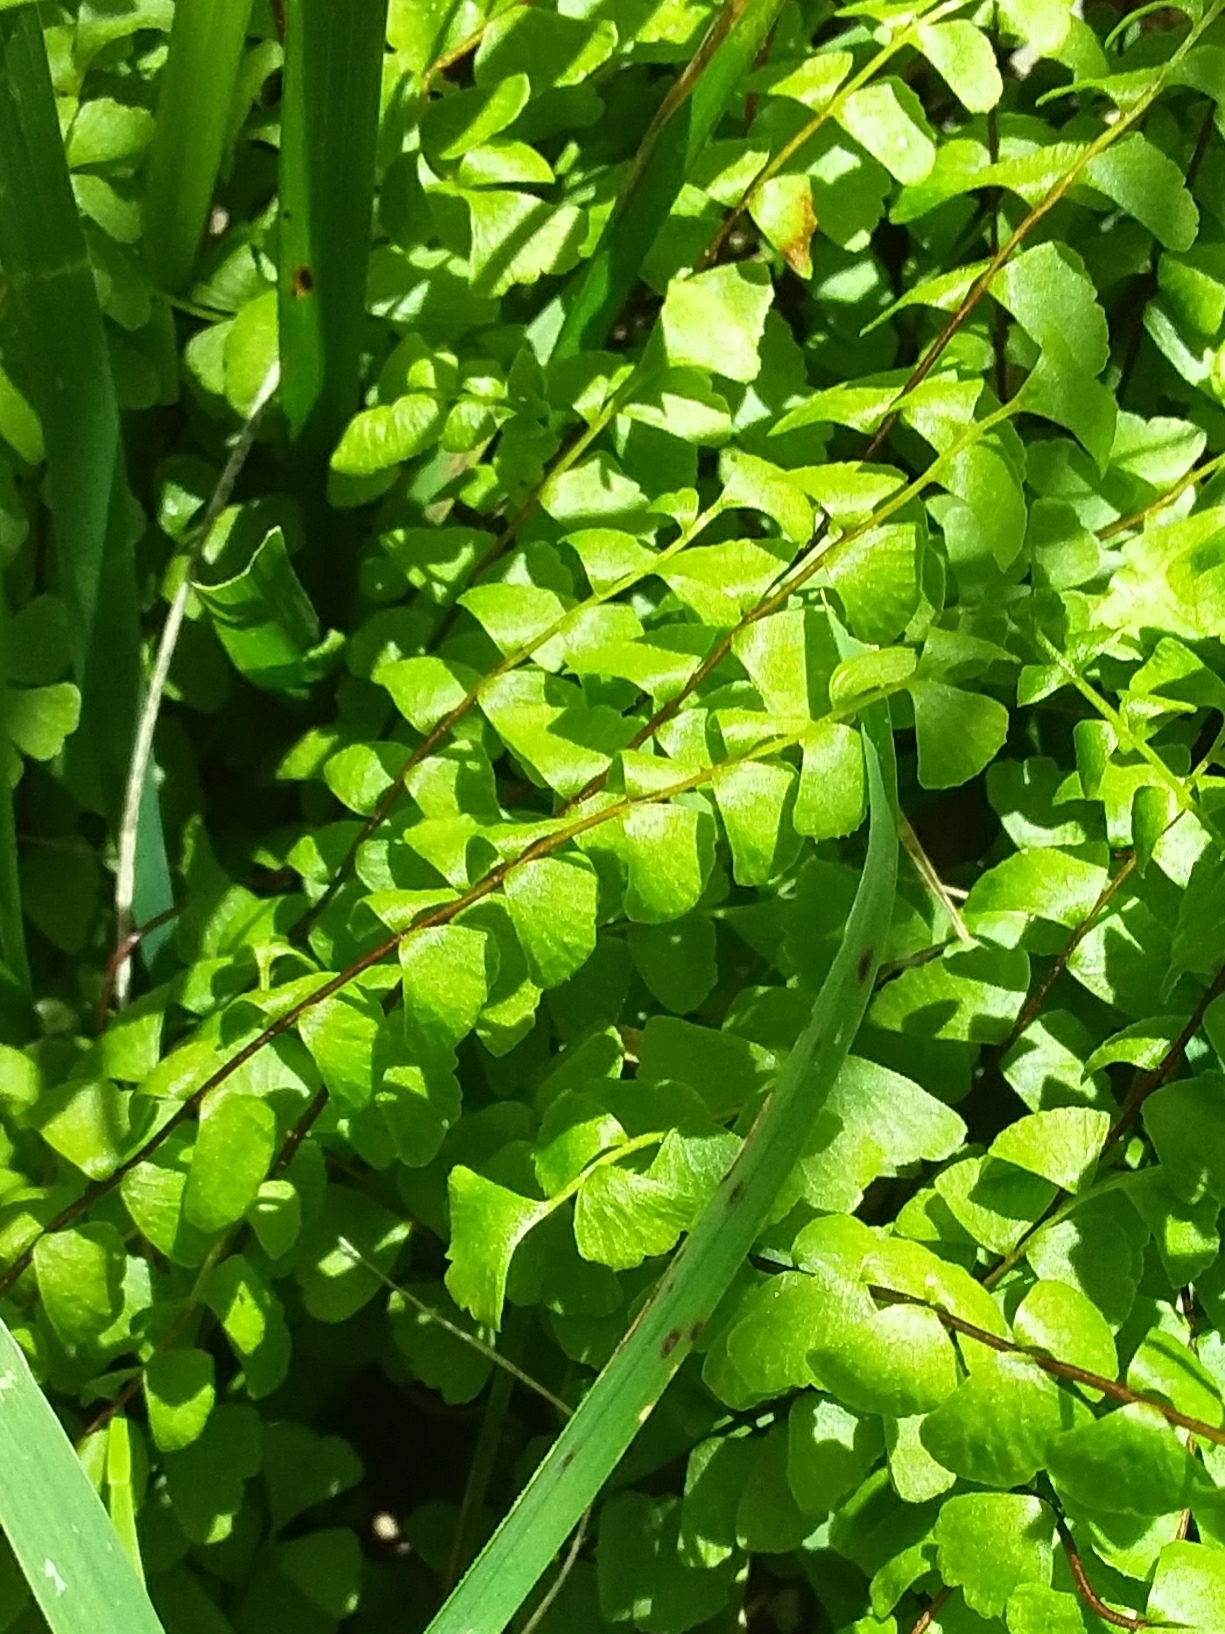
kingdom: Plantae
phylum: Tracheophyta
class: Polypodiopsida
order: Polypodiales
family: Lindsaeaceae
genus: Lindsaea
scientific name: Lindsaea linearis
